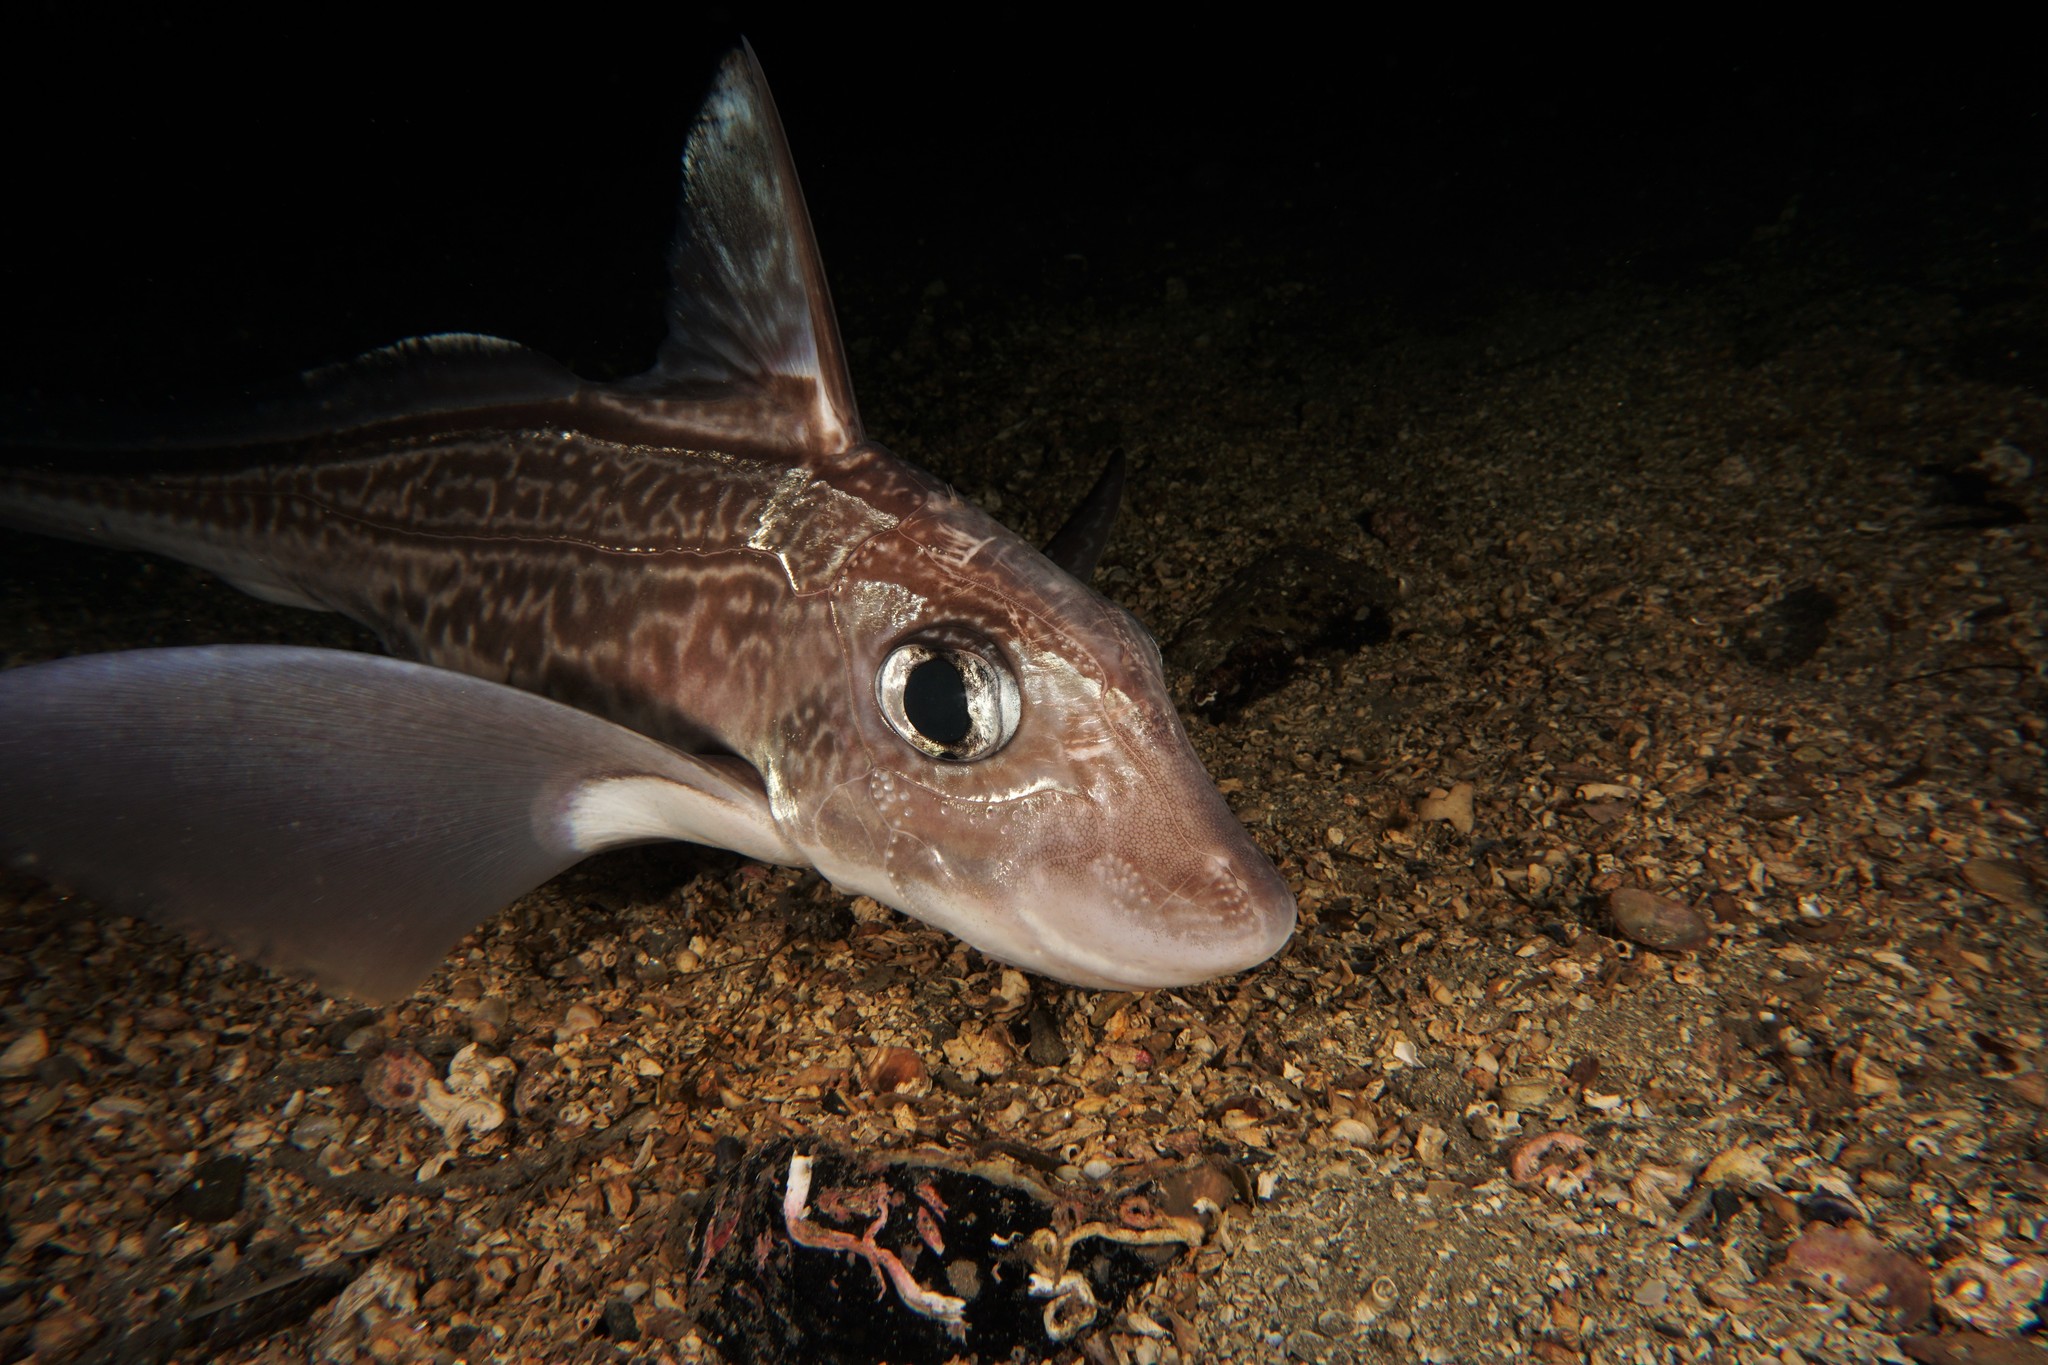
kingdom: Animalia
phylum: Chordata
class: Holocephali
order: Chimaeriformes
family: Chimaeridae
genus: Chimaera
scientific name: Chimaera monstrosa
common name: Rabbitfish
